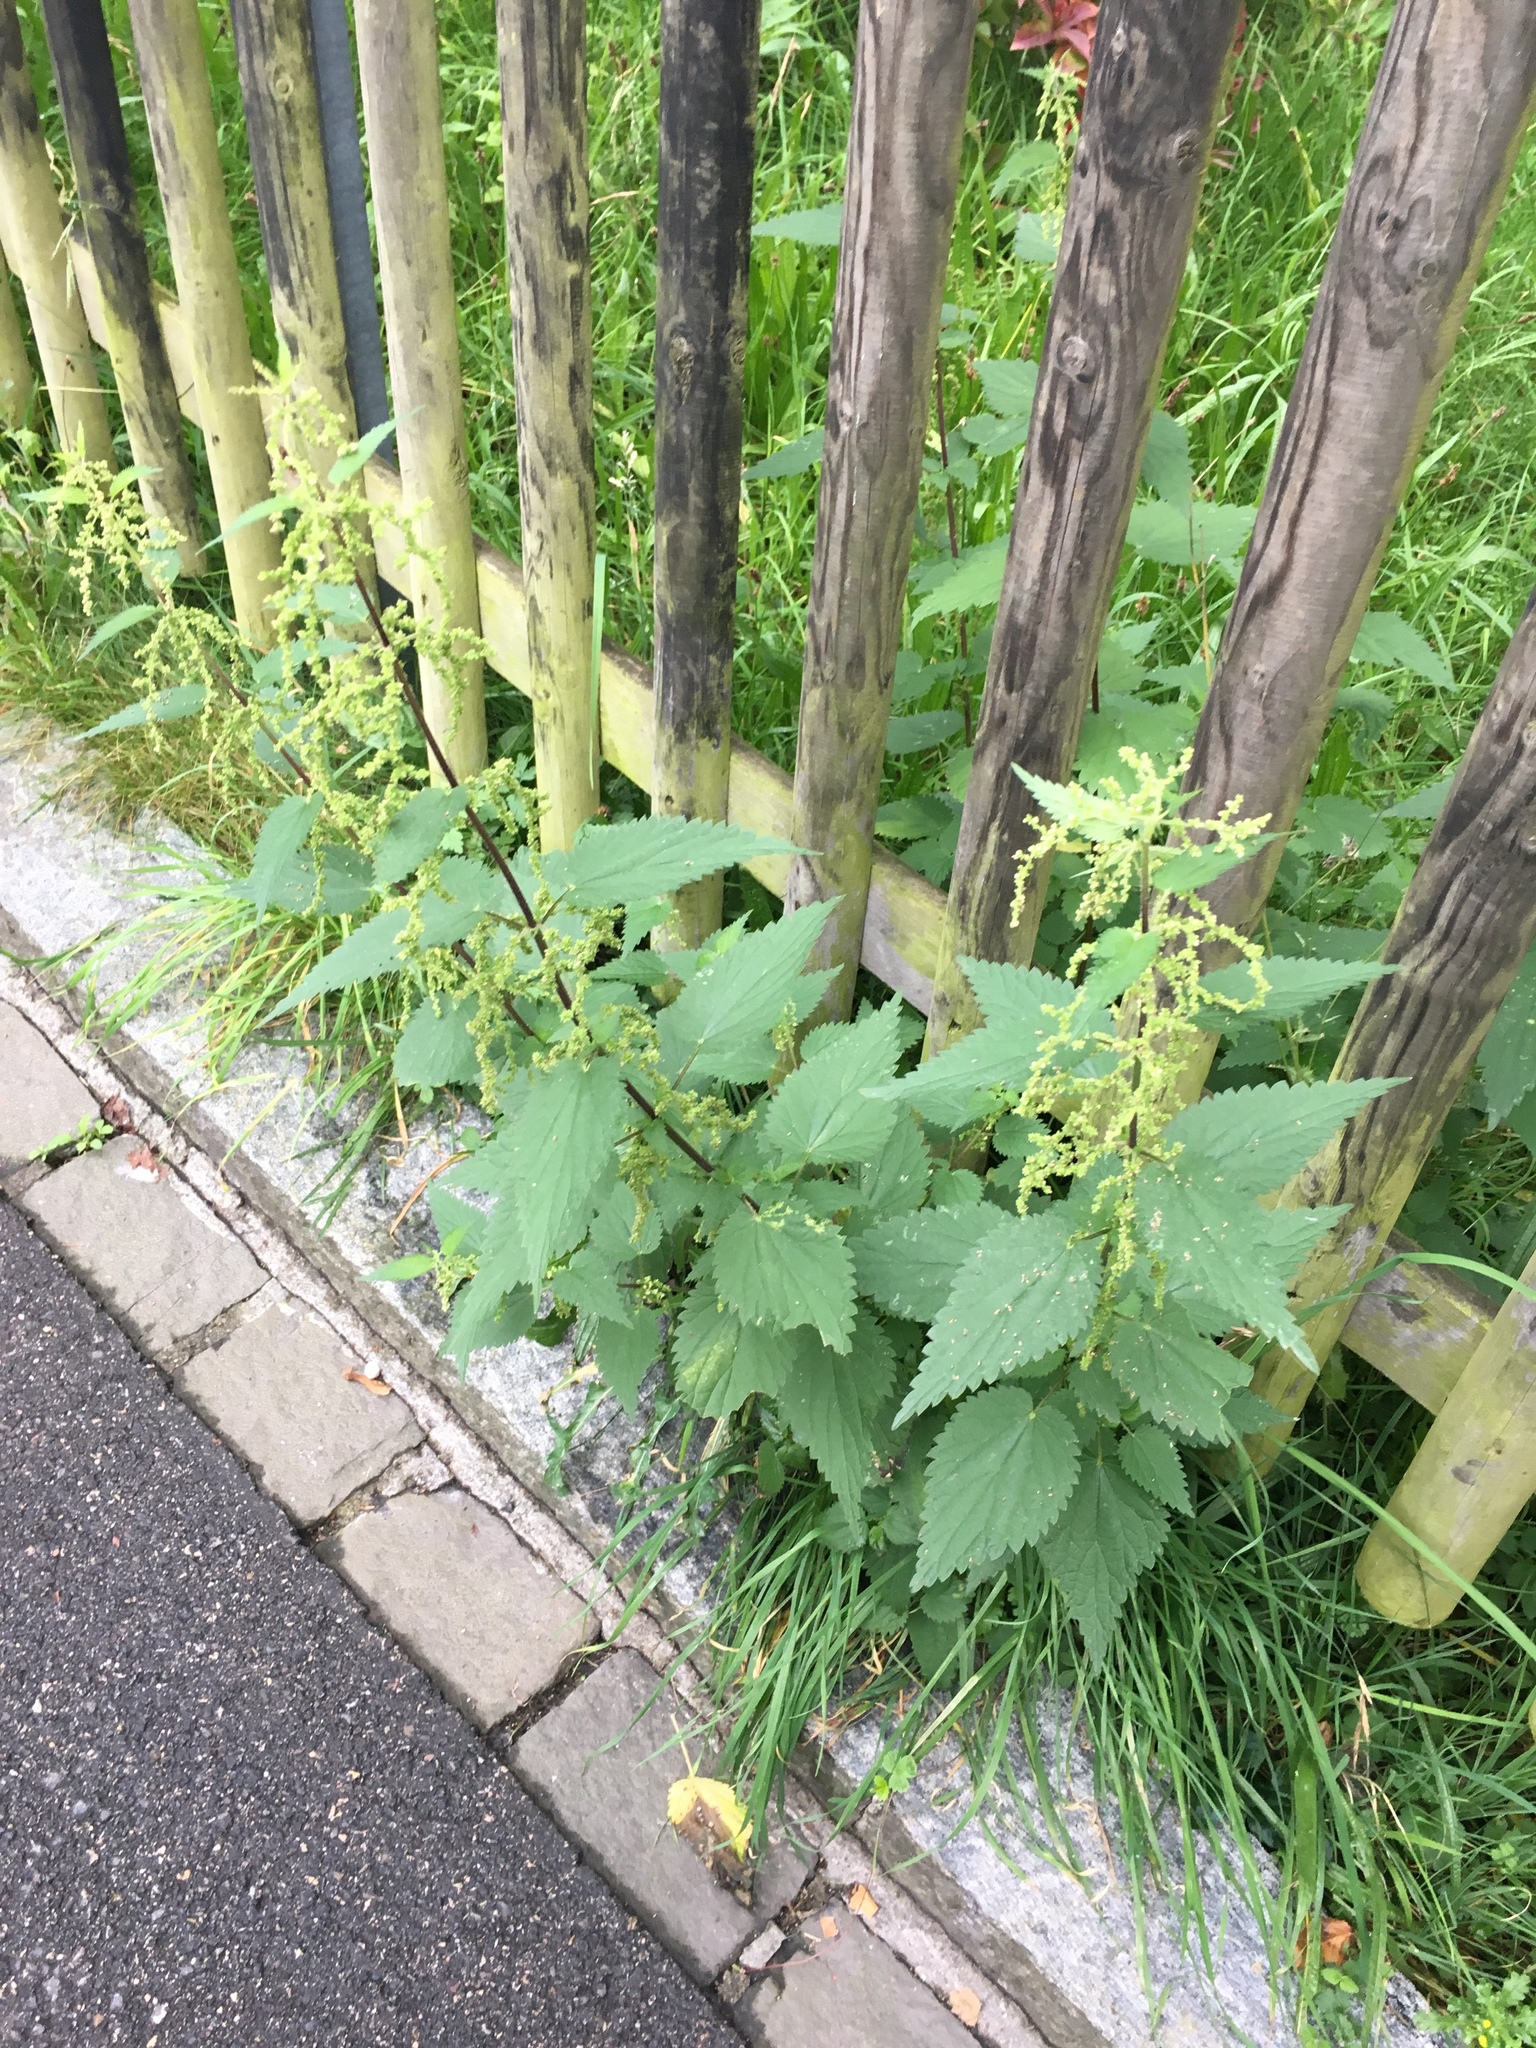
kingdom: Plantae
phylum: Tracheophyta
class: Magnoliopsida
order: Rosales
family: Urticaceae
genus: Urtica
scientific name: Urtica dioica
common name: Common nettle
